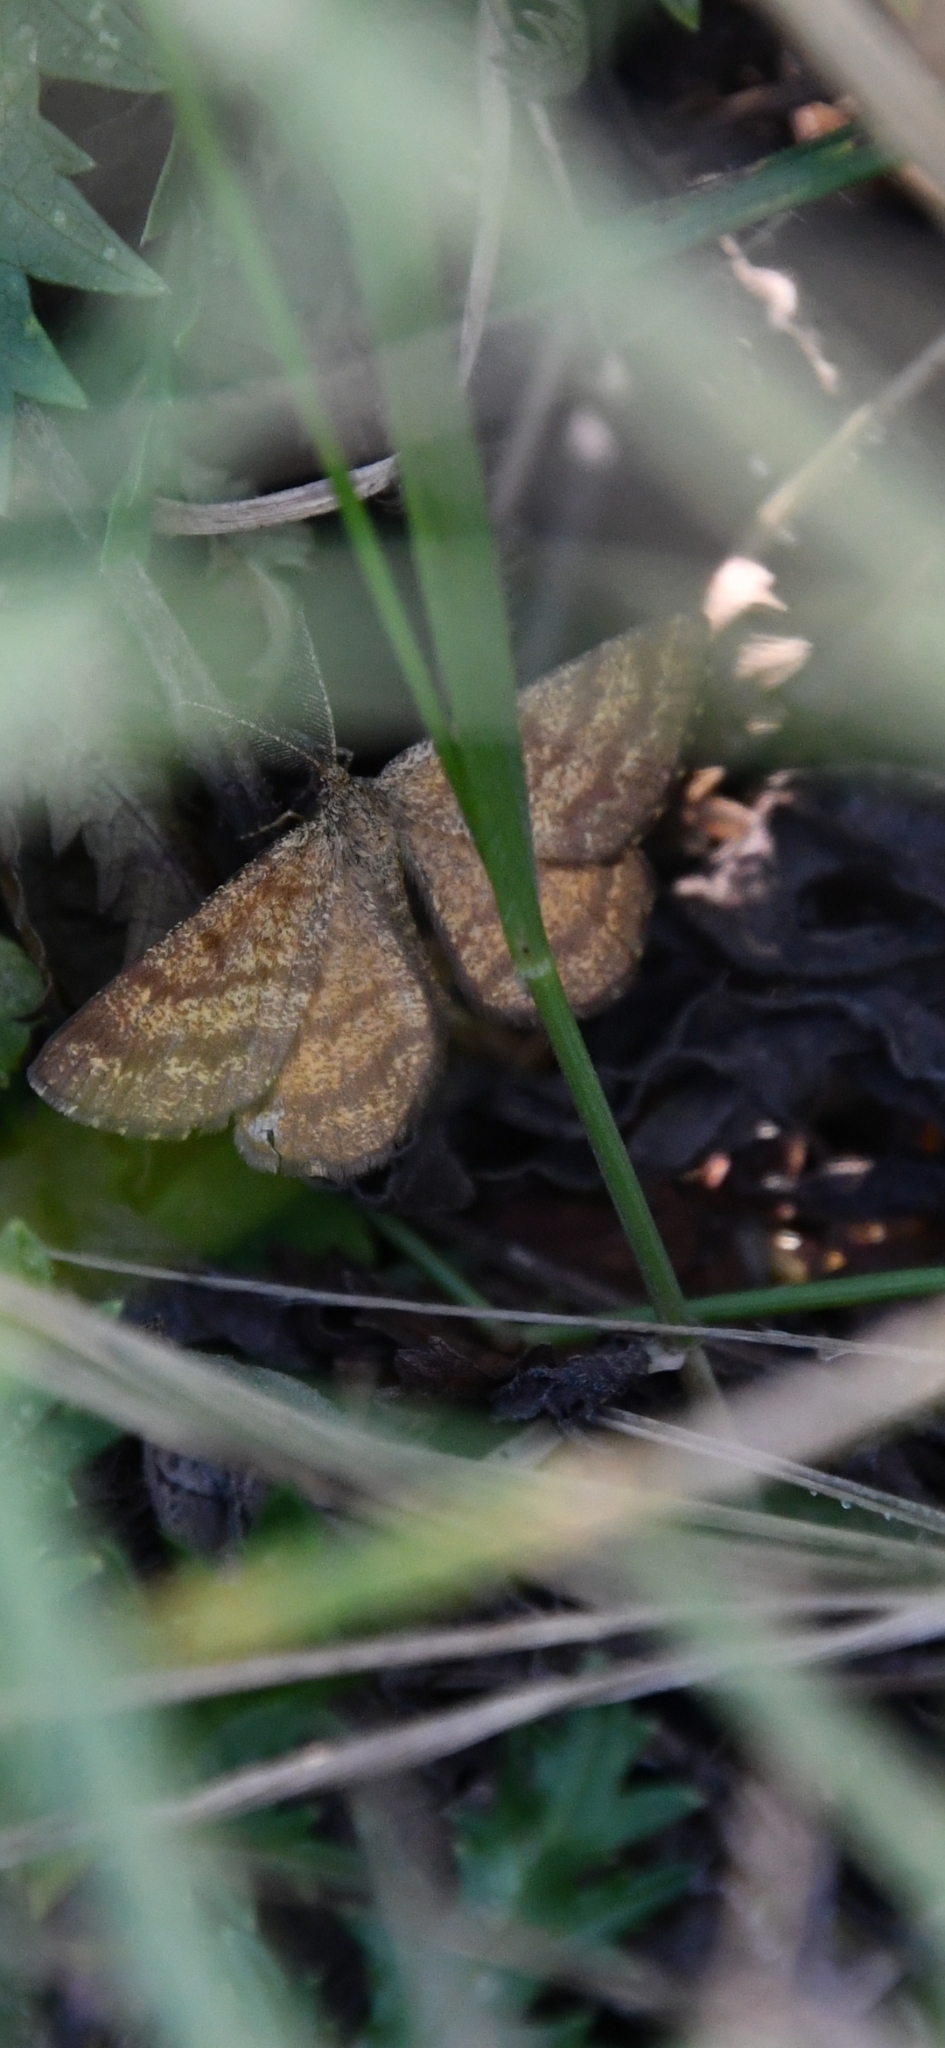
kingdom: Animalia
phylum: Arthropoda
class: Insecta
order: Lepidoptera
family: Geometridae
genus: Ematurga
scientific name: Ematurga atomaria
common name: Common heath
